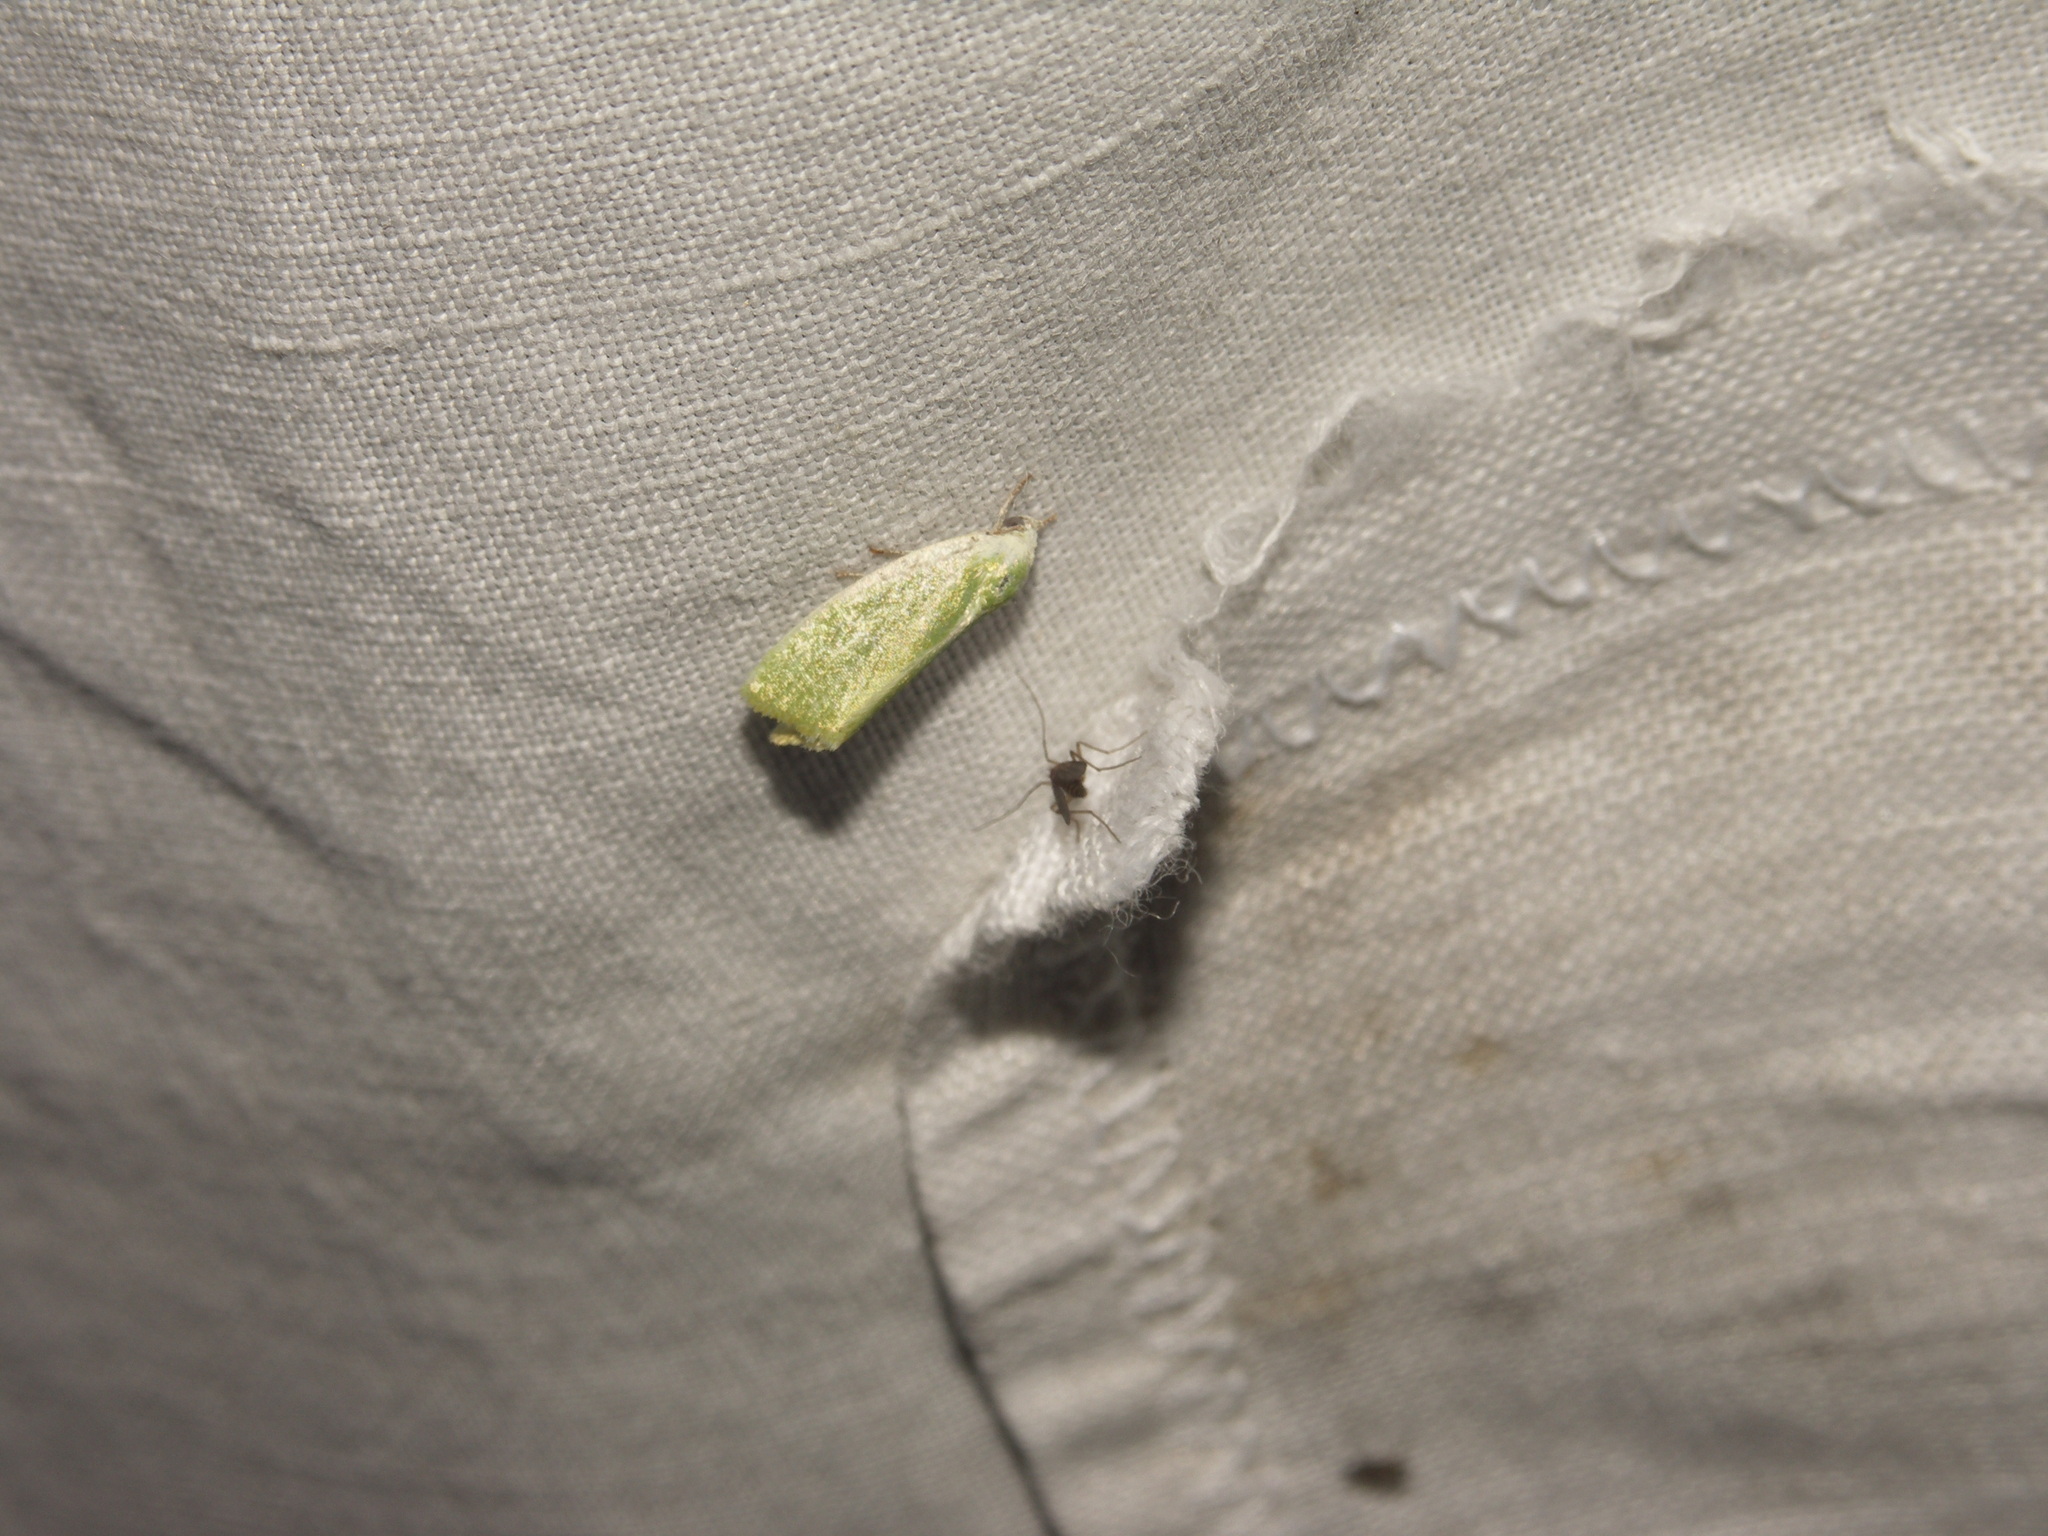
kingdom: Animalia
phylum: Arthropoda
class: Insecta
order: Lepidoptera
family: Nolidae
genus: Earias
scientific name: Earias clorana
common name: Cream-bordered green pea
